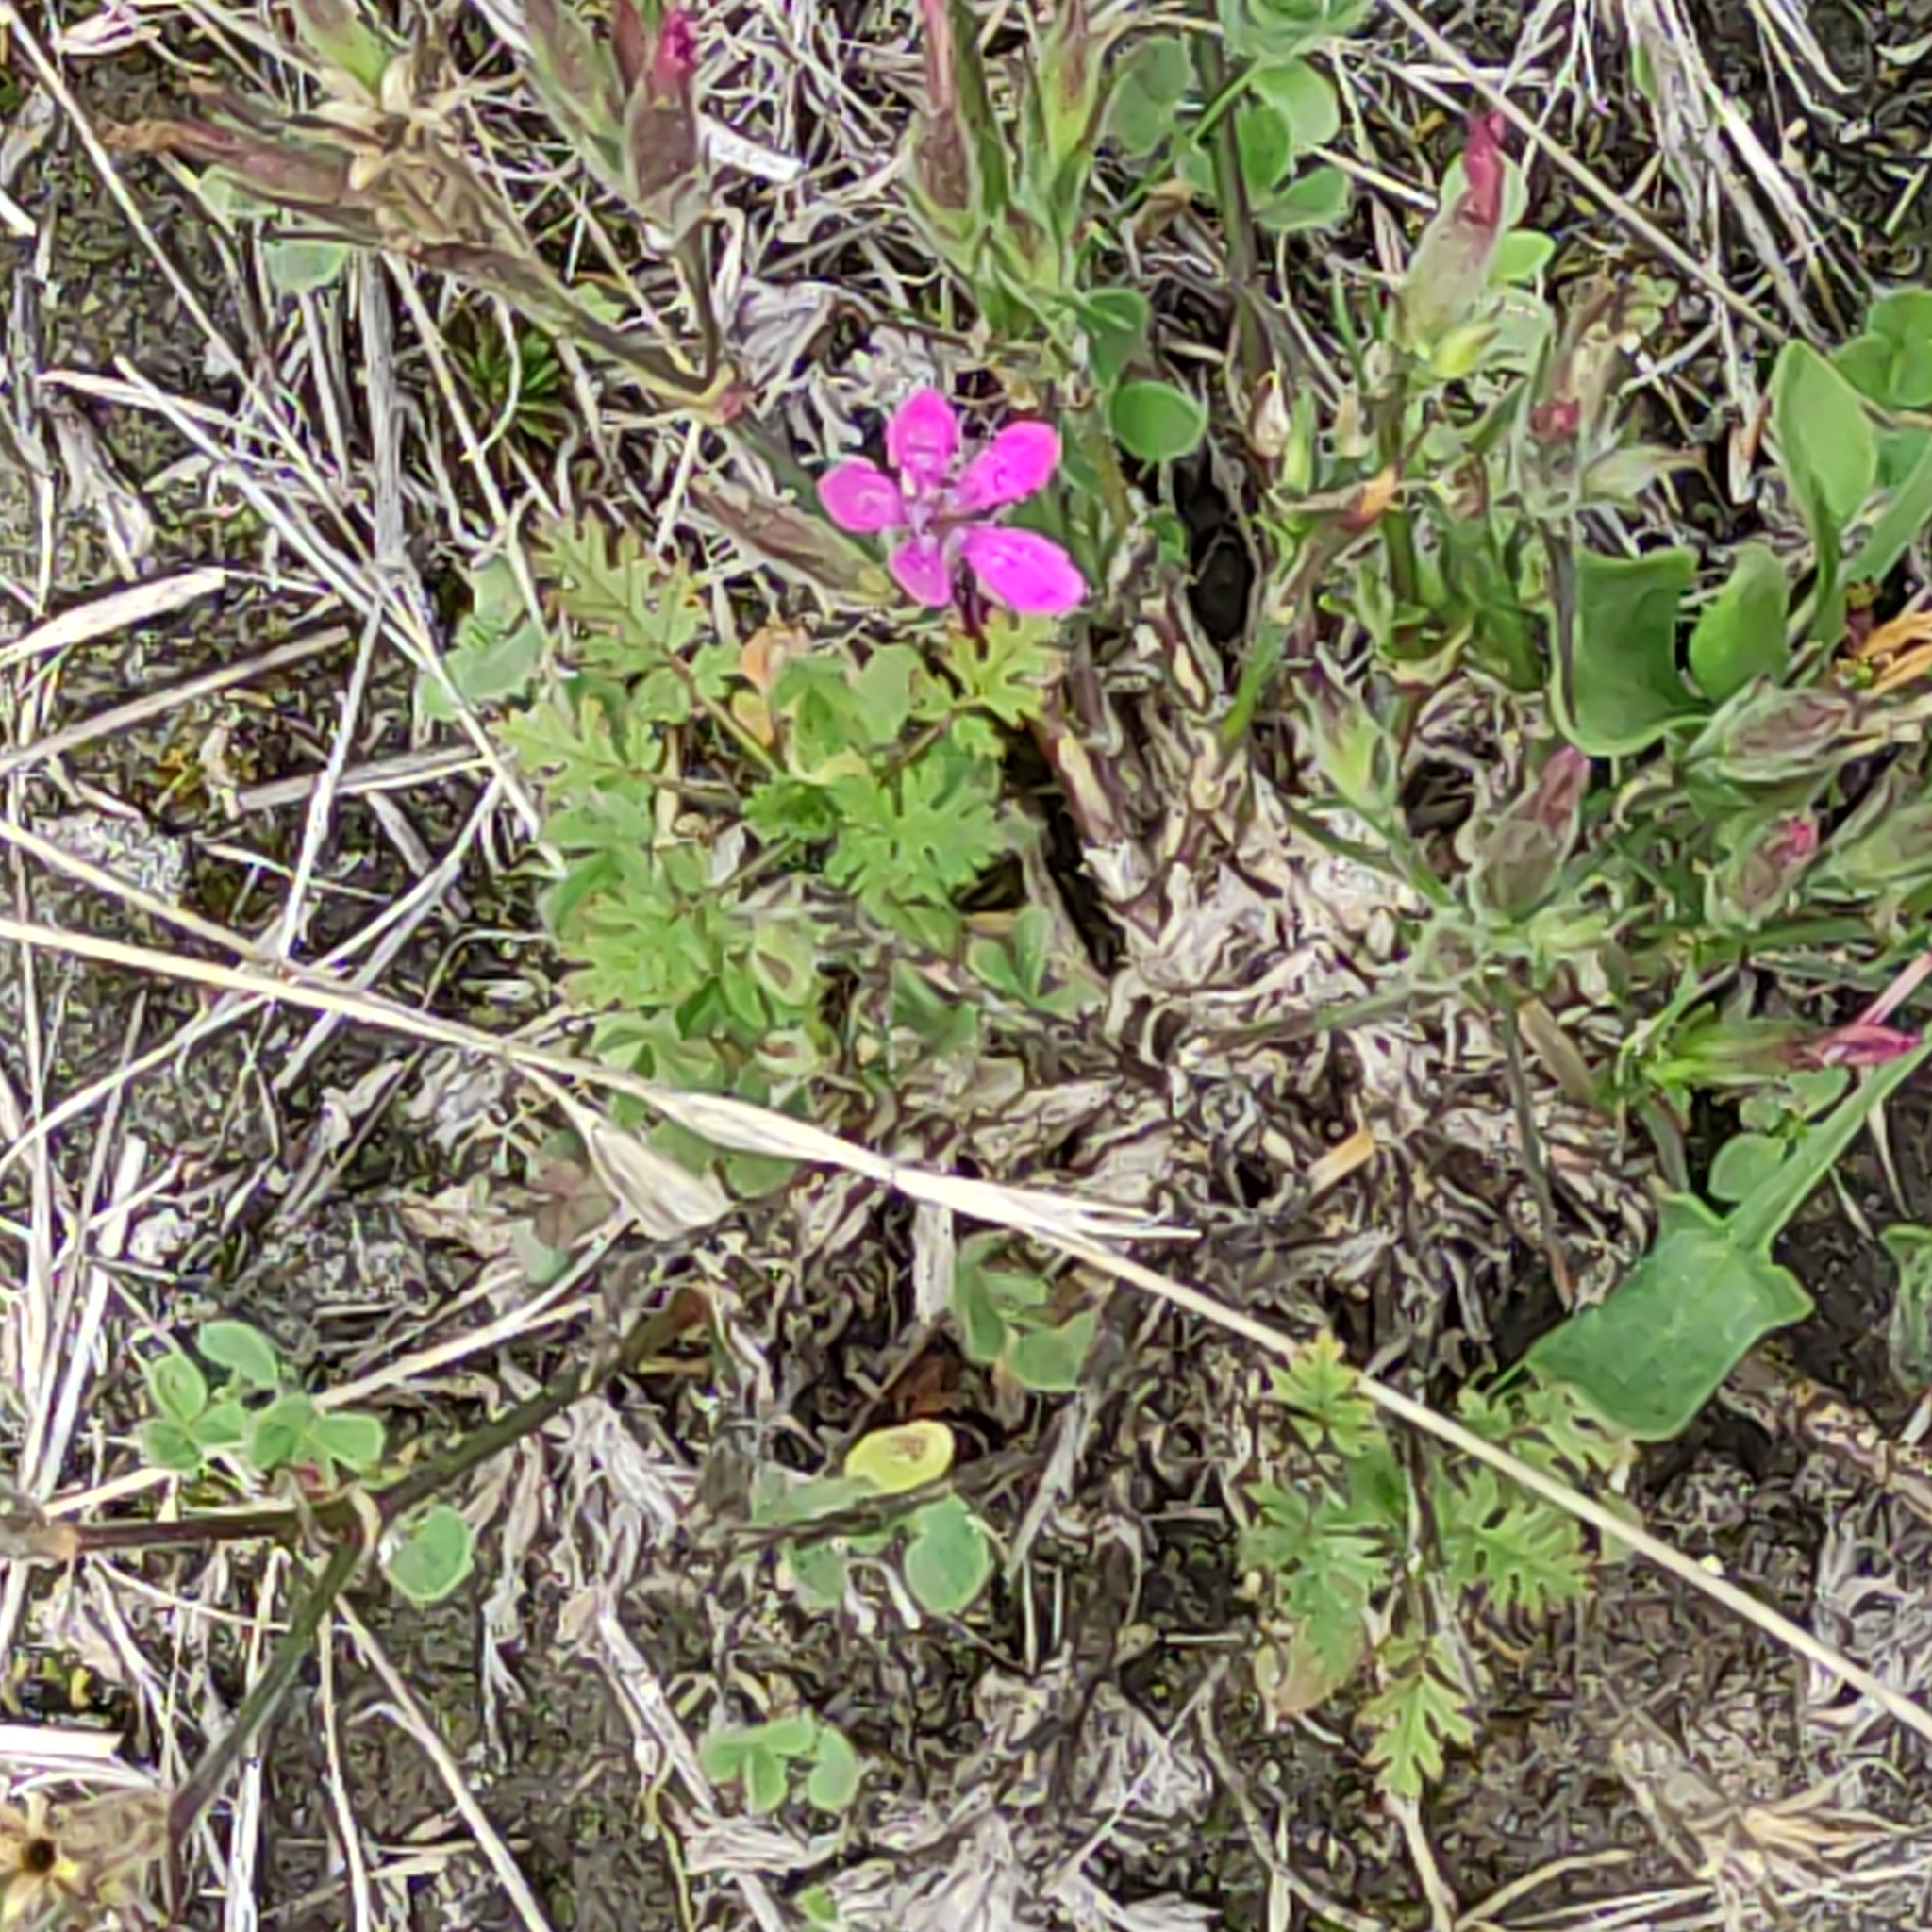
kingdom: Plantae
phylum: Tracheophyta
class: Magnoliopsida
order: Caryophyllales
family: Caryophyllaceae
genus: Dianthus
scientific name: Dianthus armeria
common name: Deptford pink
